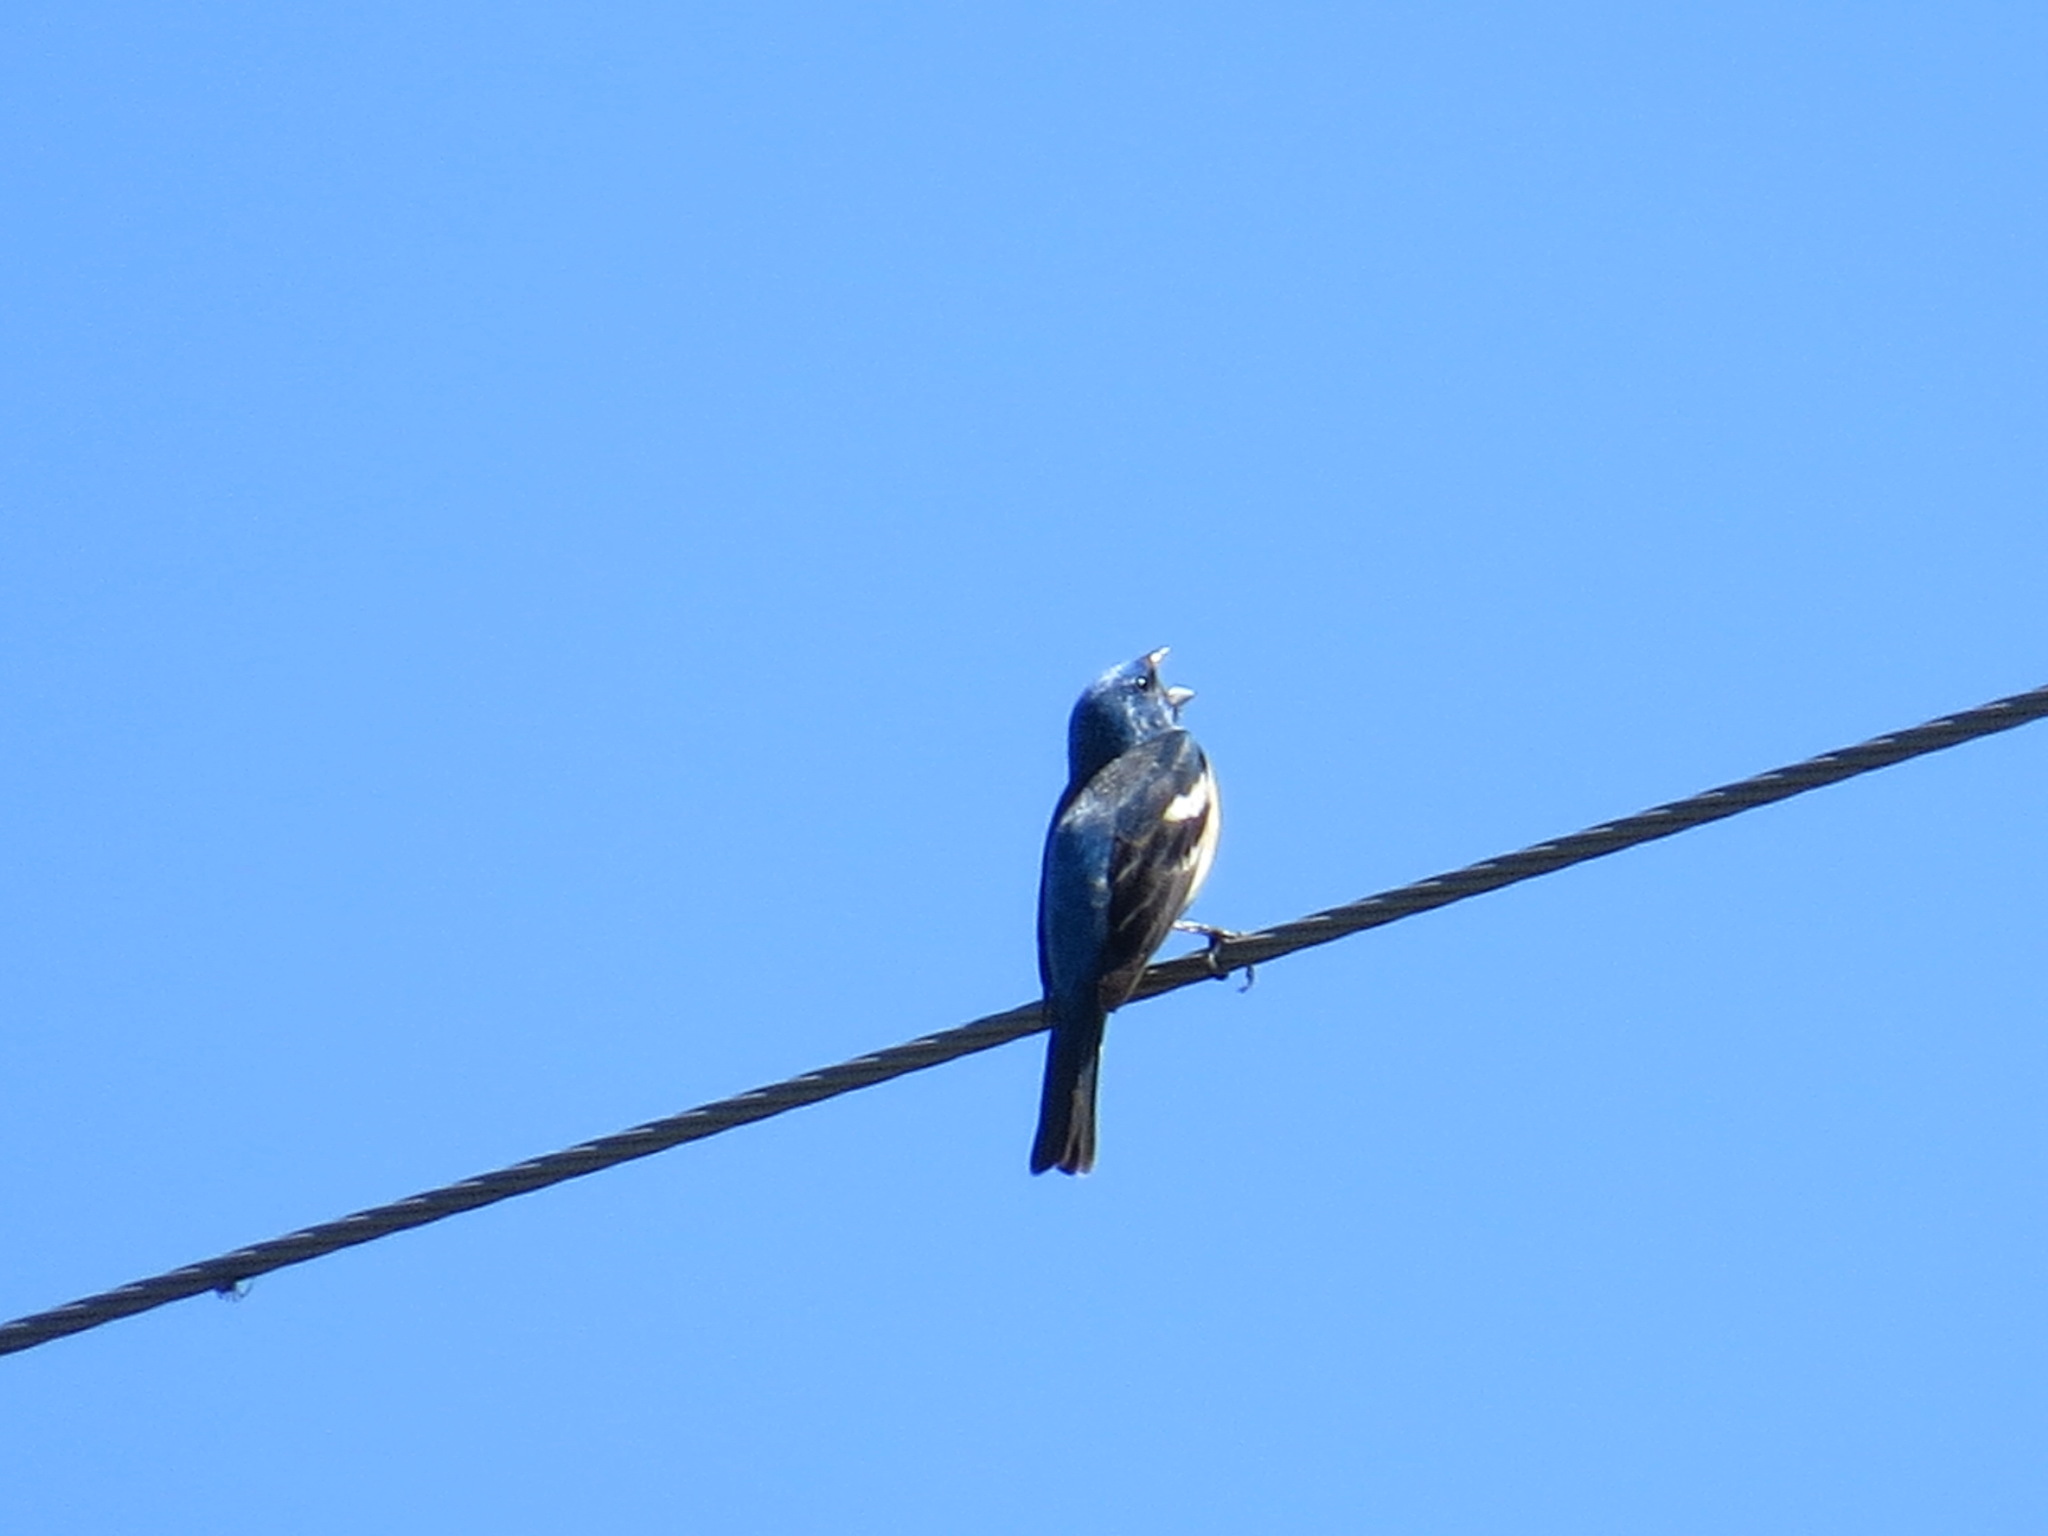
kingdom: Animalia
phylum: Chordata
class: Aves
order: Passeriformes
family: Cardinalidae
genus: Passerina
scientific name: Passerina amoena
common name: Lazuli bunting
